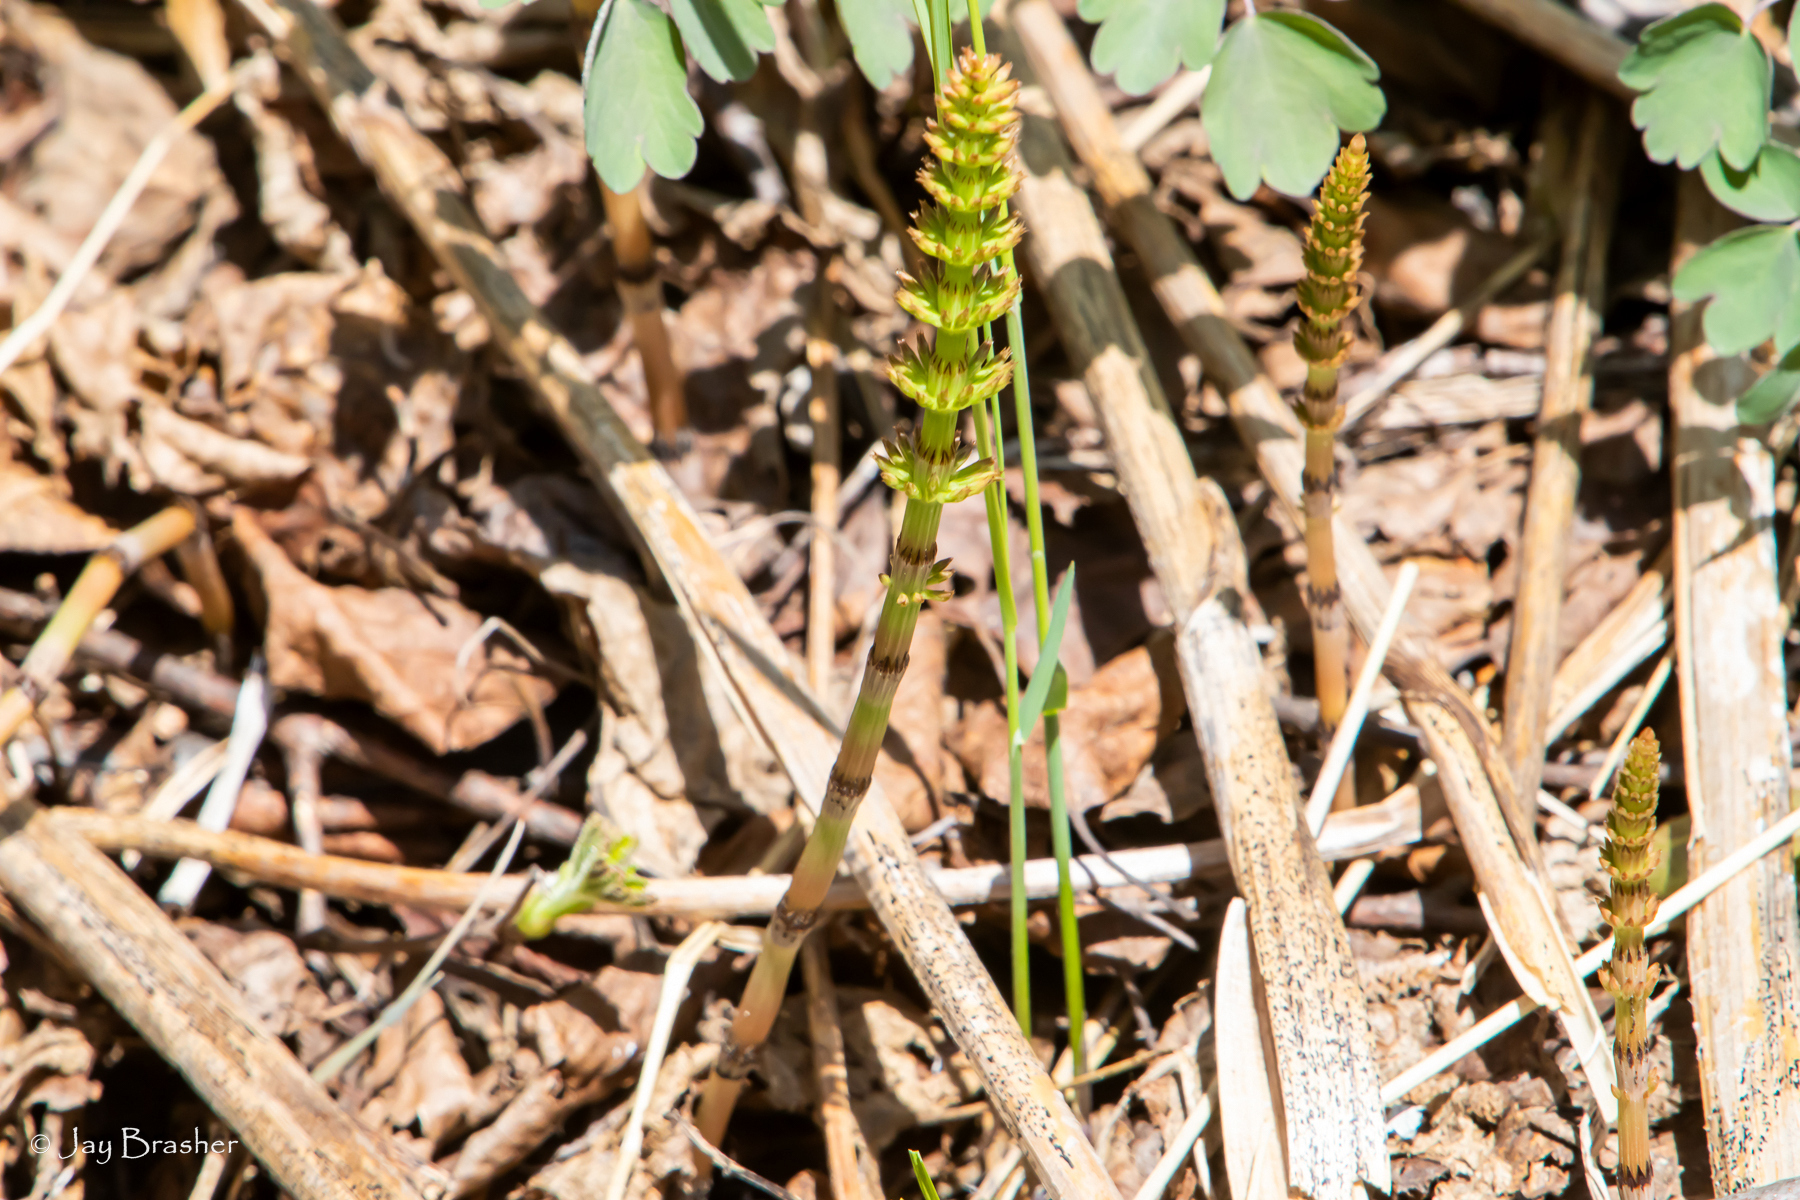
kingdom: Plantae
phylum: Tracheophyta
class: Polypodiopsida
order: Equisetales
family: Equisetaceae
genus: Equisetum
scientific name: Equisetum arvense
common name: Field horsetail
